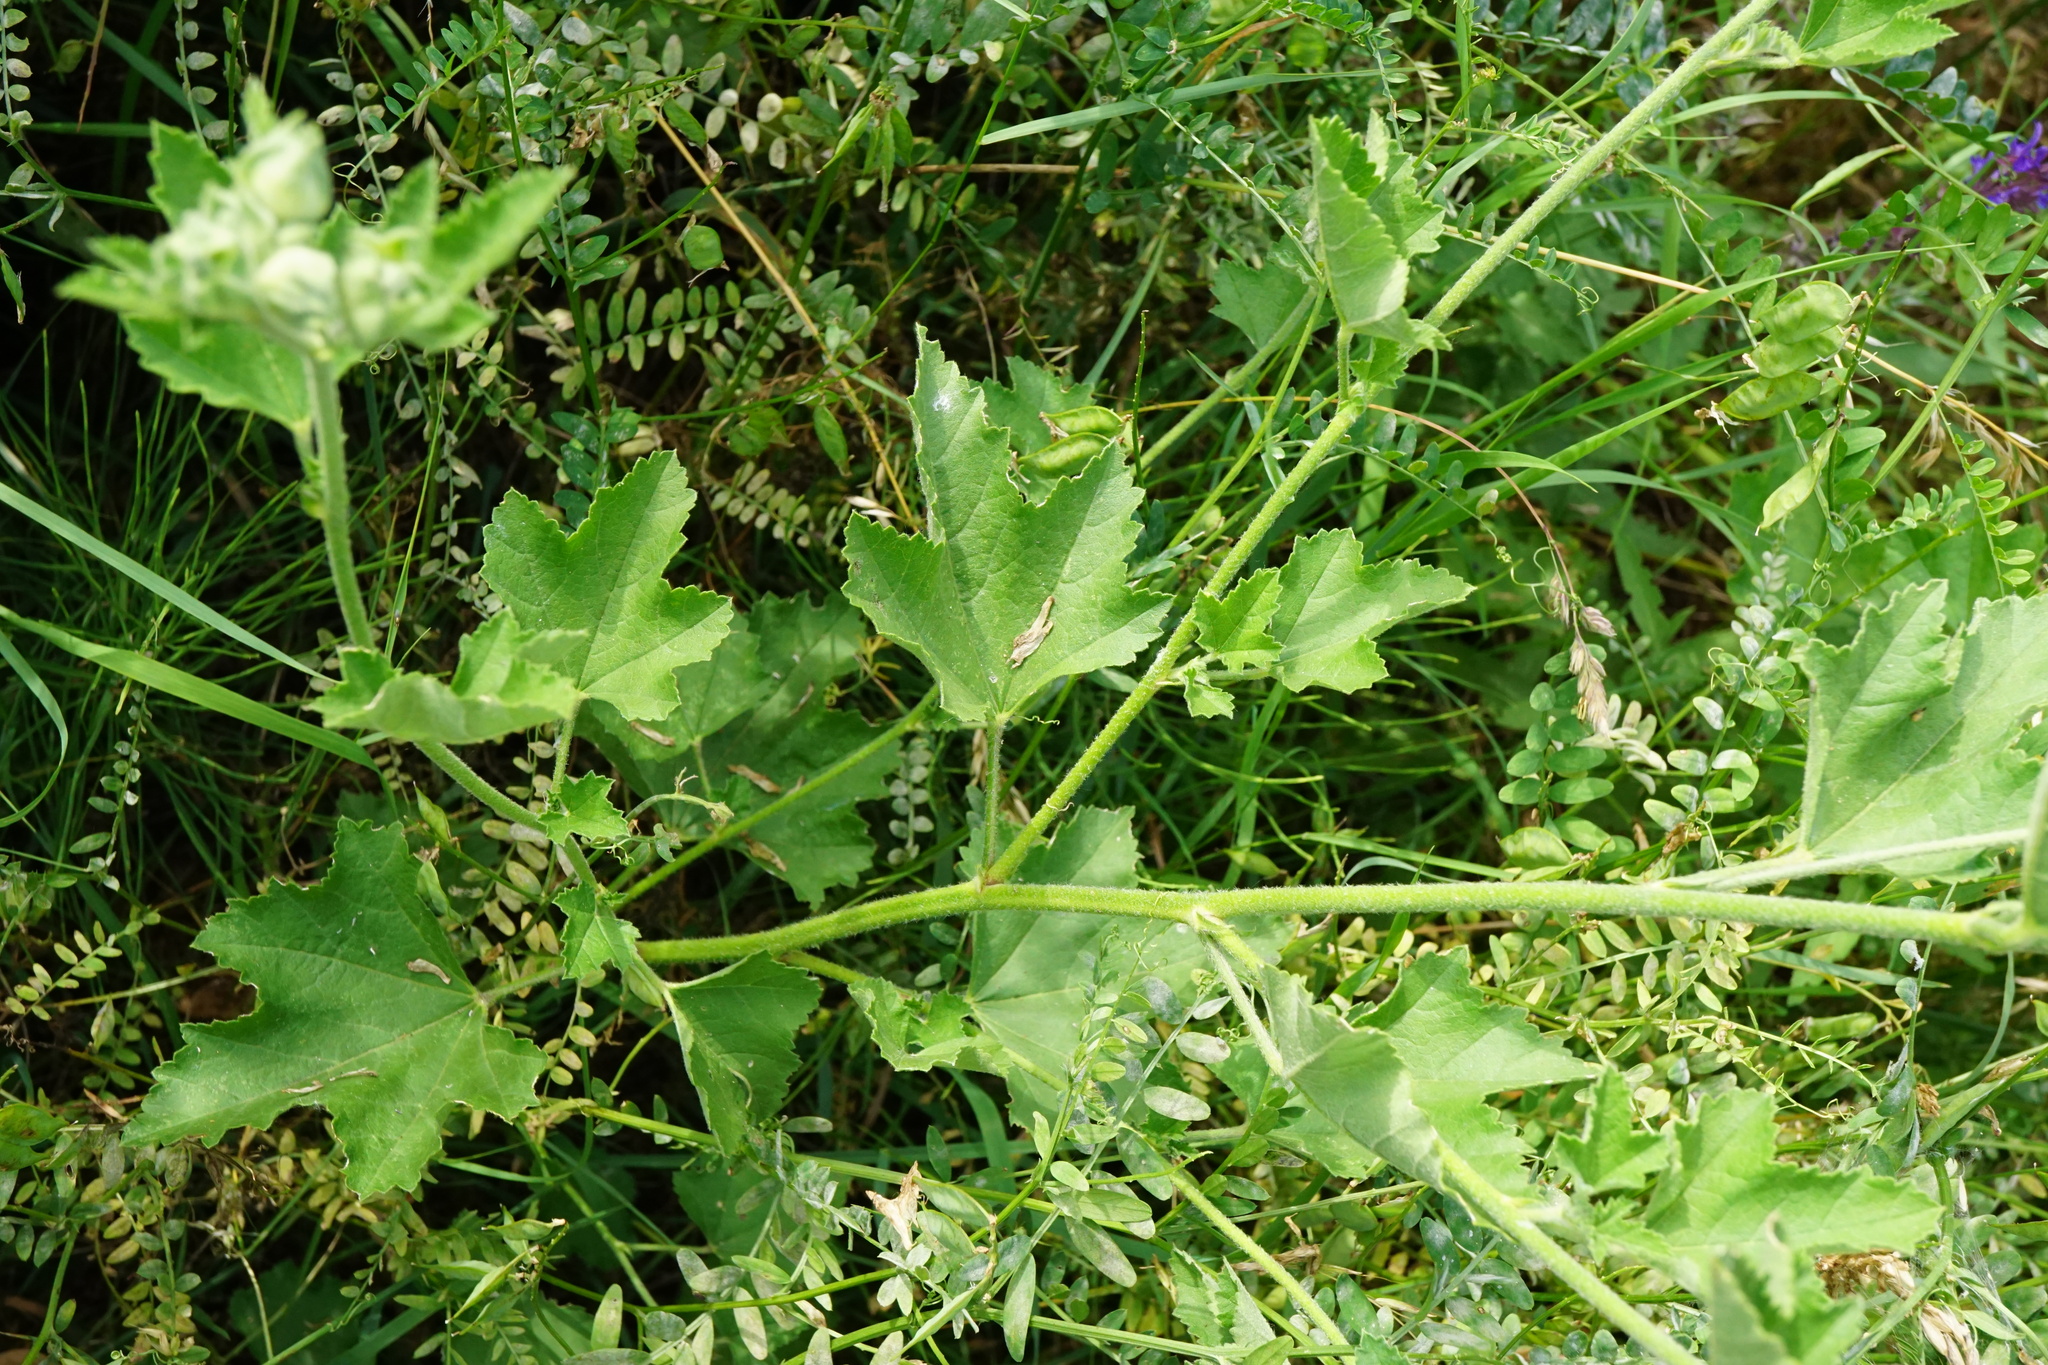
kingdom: Plantae
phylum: Tracheophyta
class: Magnoliopsida
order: Malvales
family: Malvaceae
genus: Malva
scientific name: Malva thuringiaca
